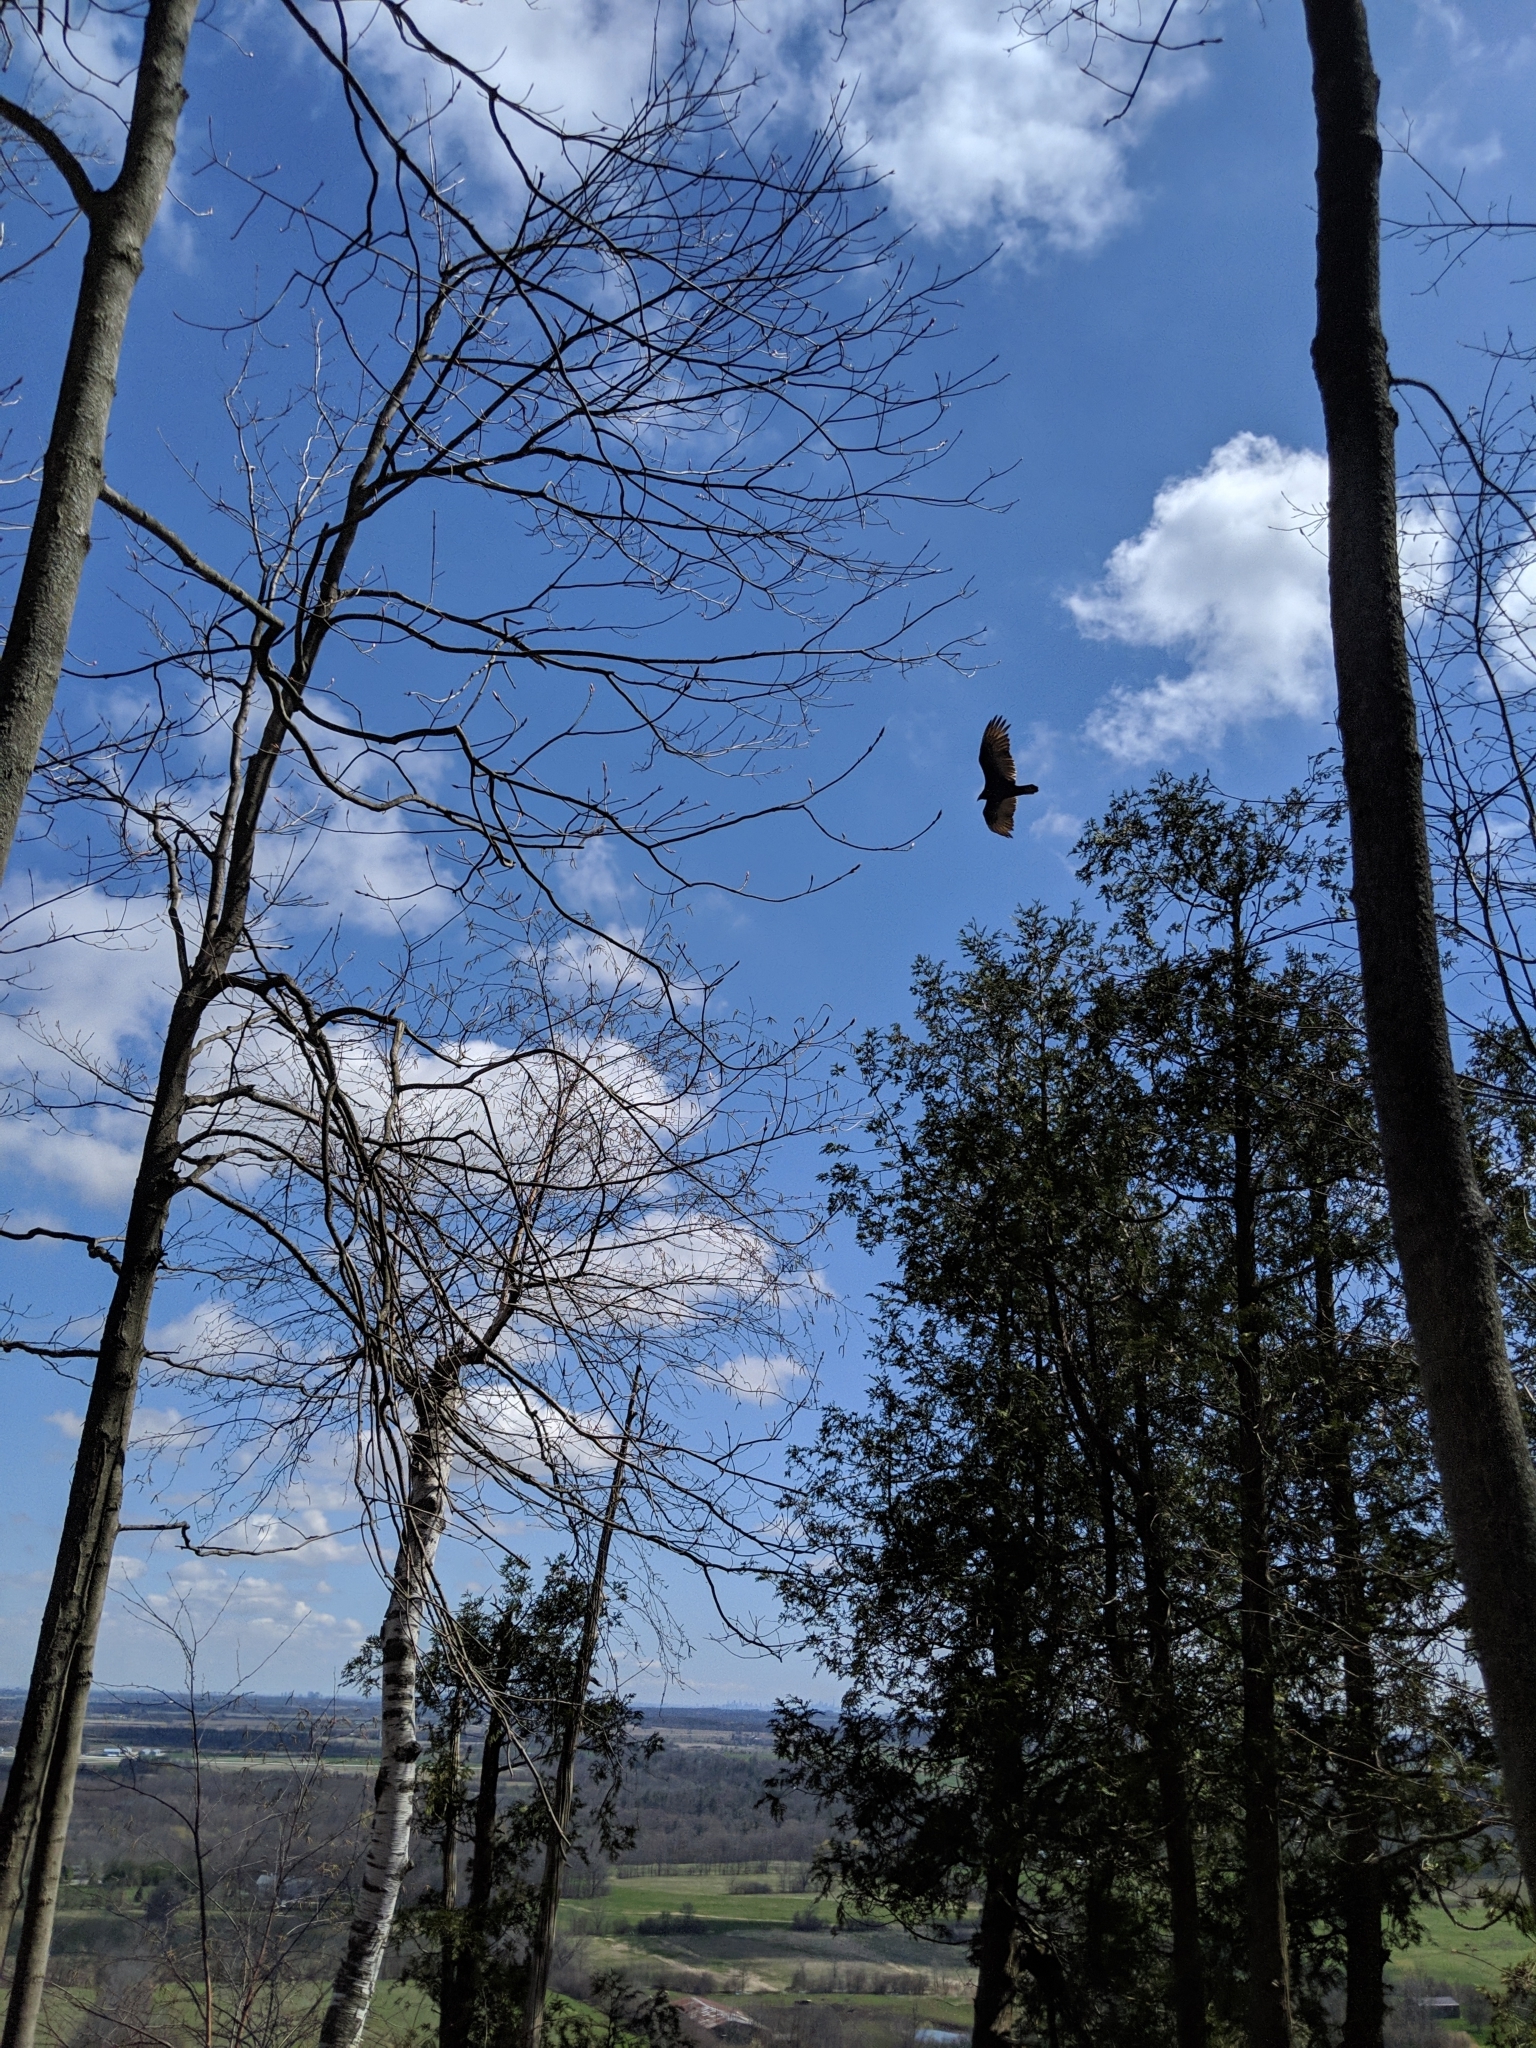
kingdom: Animalia
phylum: Chordata
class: Aves
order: Accipitriformes
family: Cathartidae
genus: Cathartes
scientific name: Cathartes aura
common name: Turkey vulture
